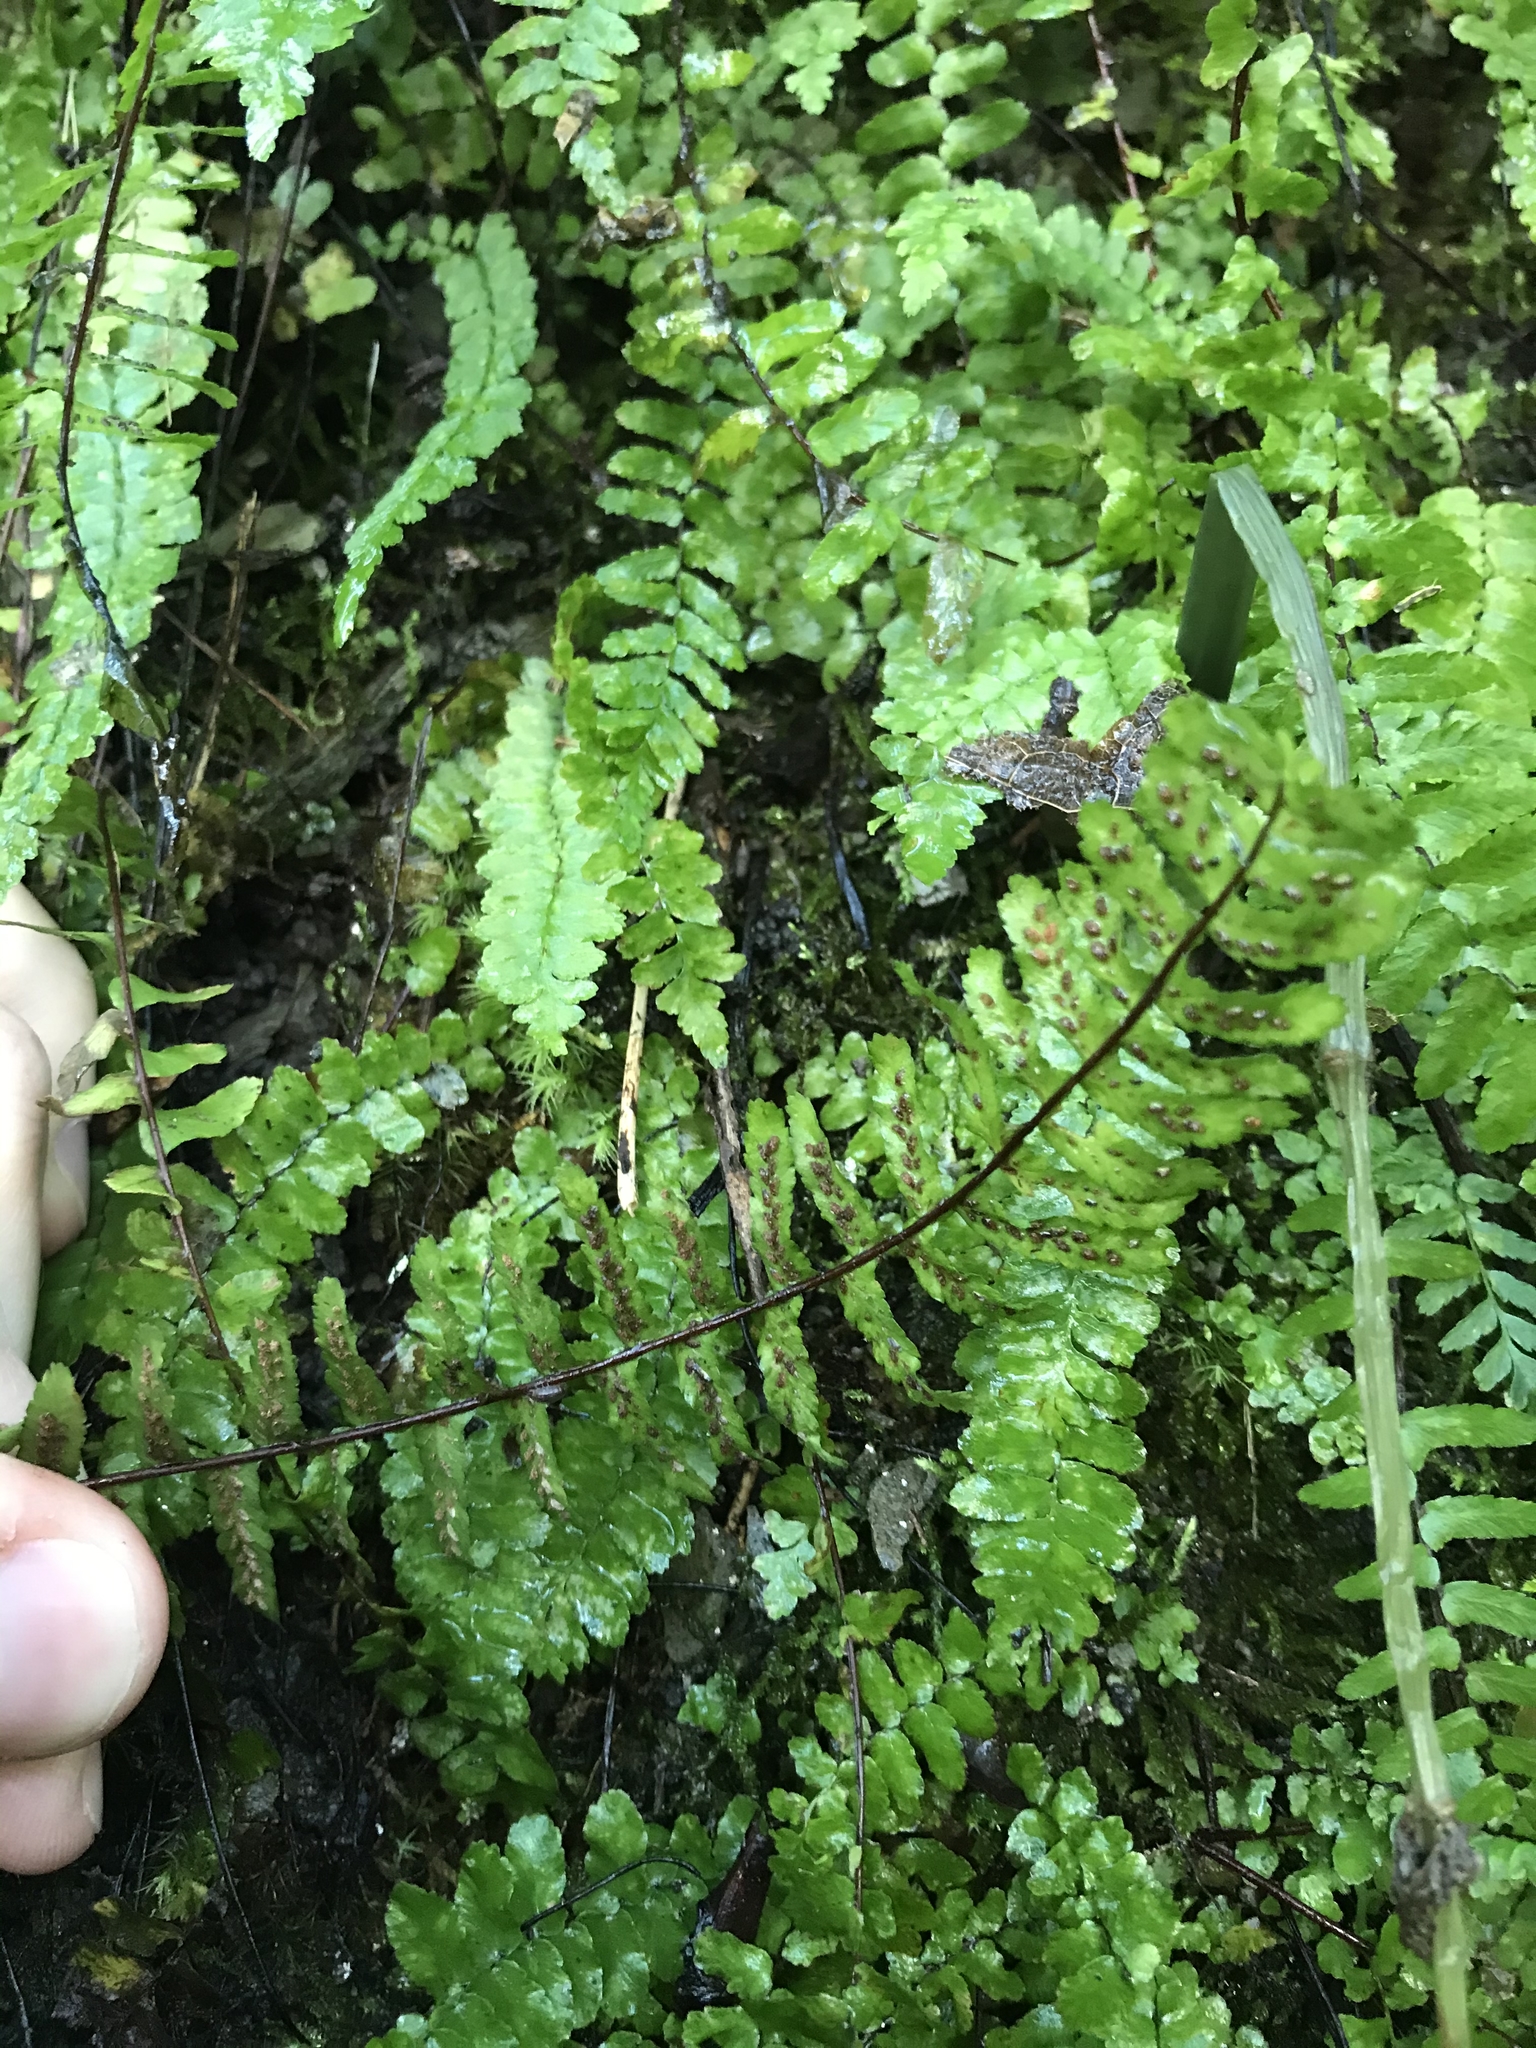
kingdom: Plantae
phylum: Tracheophyta
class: Polypodiopsida
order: Polypodiales
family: Aspleniaceae
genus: Asplenium
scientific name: Asplenium platyneuron
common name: Ebony spleenwort
